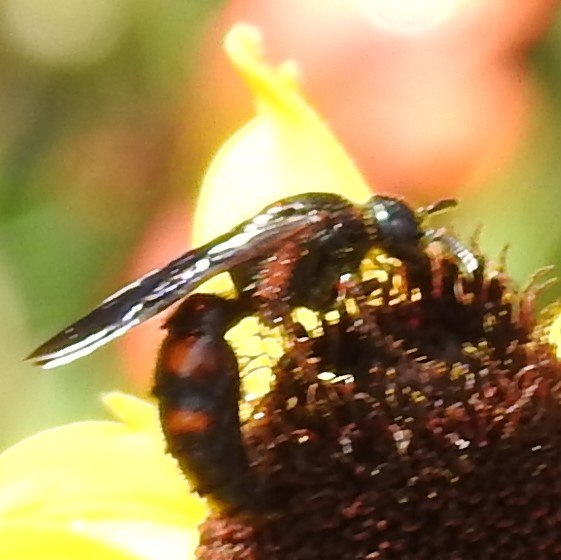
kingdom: Animalia
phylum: Arthropoda
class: Insecta
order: Hymenoptera
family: Scoliidae
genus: Scolia
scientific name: Scolia nobilitata
